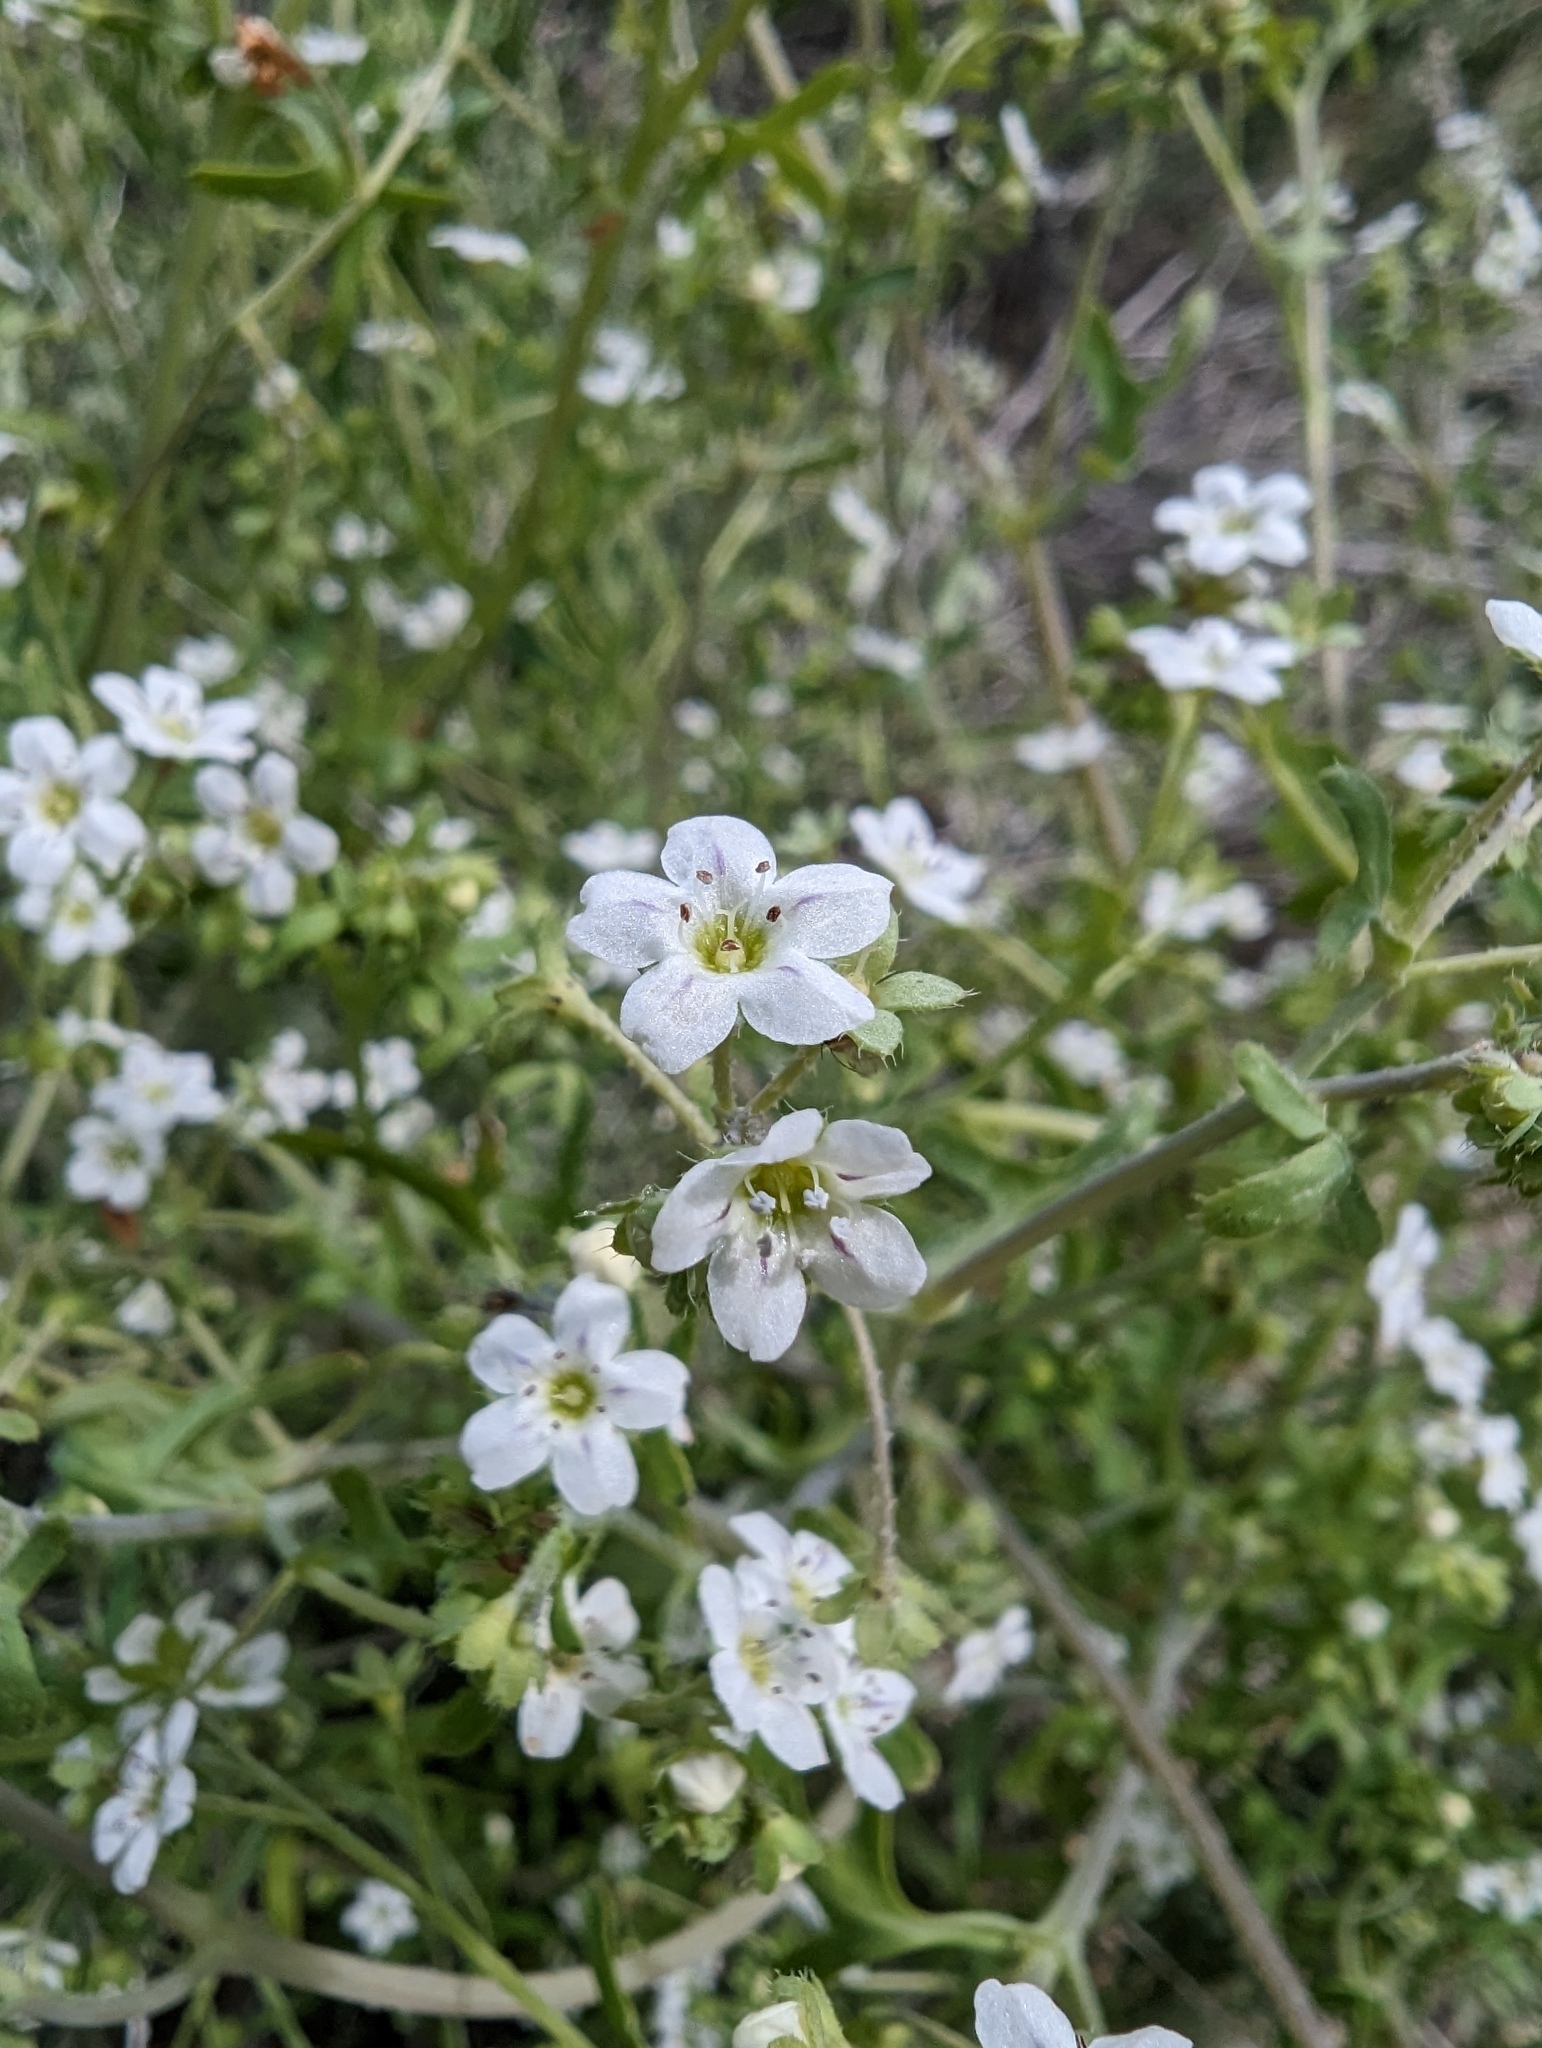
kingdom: Plantae
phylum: Tracheophyta
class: Magnoliopsida
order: Boraginales
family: Hydrophyllaceae
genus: Pholistoma
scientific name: Pholistoma membranaceum
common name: White fiesta-flower
